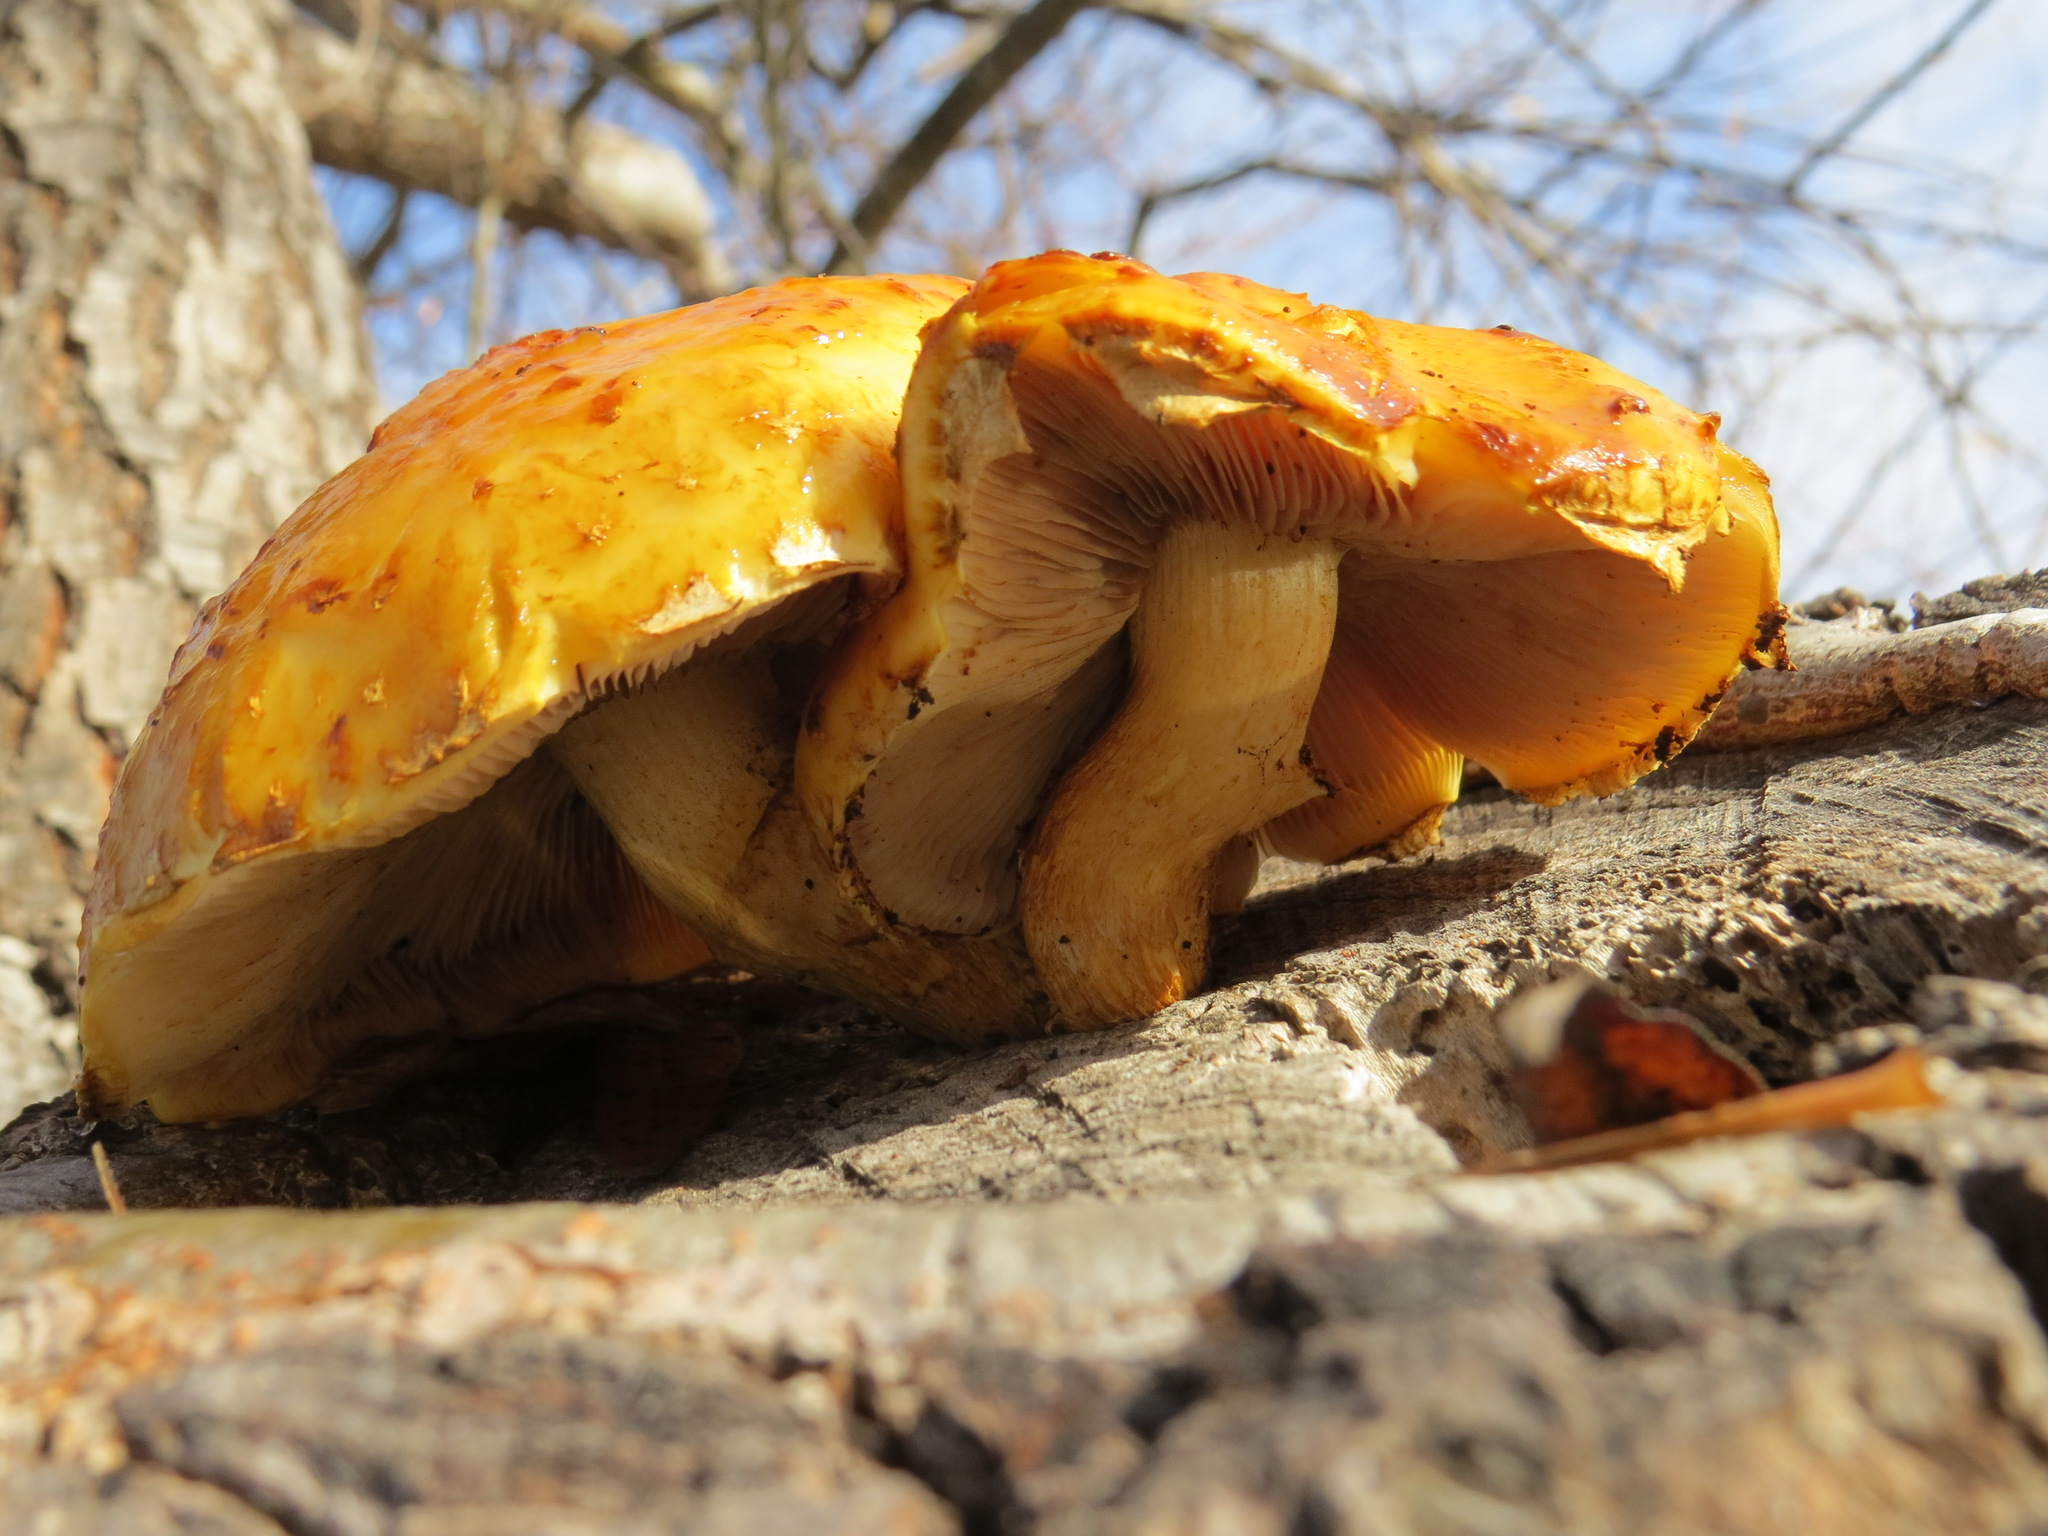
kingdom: Fungi
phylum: Basidiomycota
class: Agaricomycetes
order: Agaricales
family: Strophariaceae
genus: Pholiota
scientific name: Pholiota aurivella
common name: Golden scalycap
